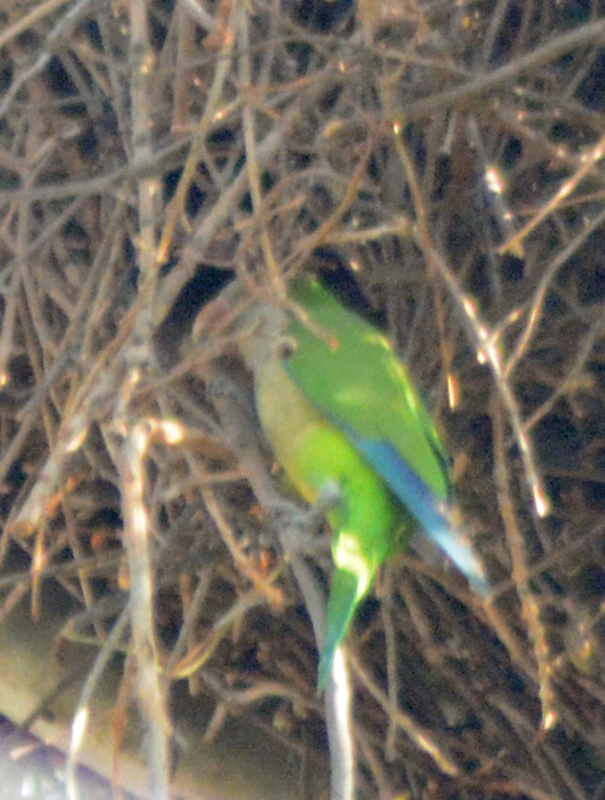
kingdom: Animalia
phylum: Chordata
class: Aves
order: Psittaciformes
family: Psittacidae
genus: Myiopsitta
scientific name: Myiopsitta monachus
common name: Monk parakeet
